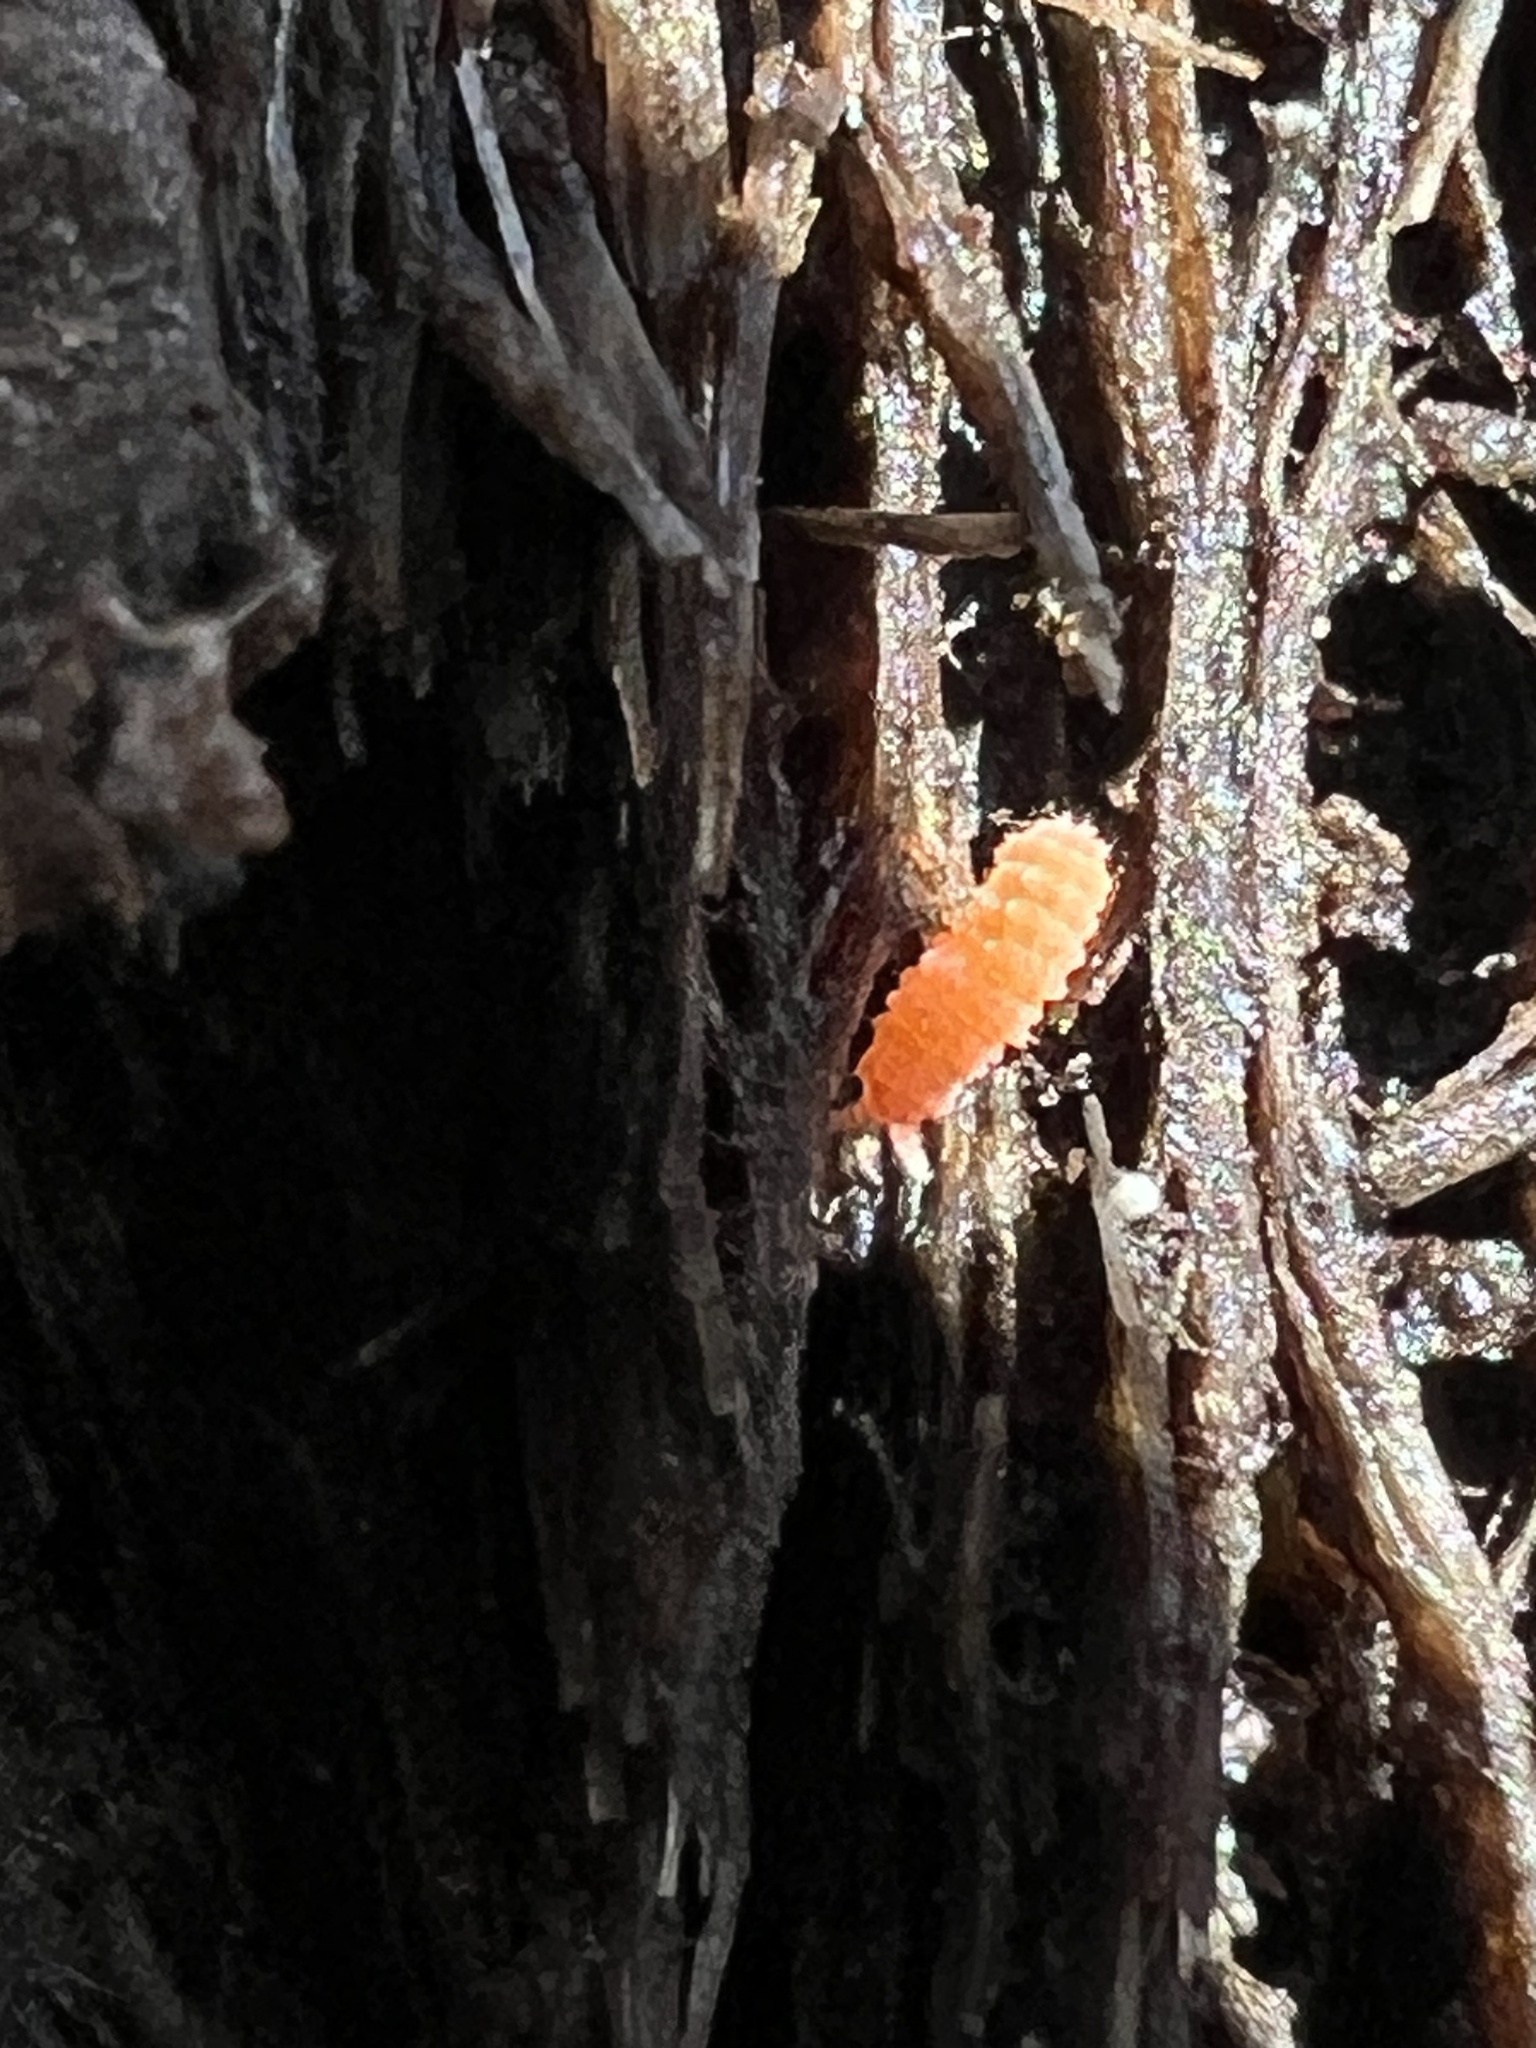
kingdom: Animalia
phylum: Arthropoda
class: Collembola
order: Poduromorpha
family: Neanuridae
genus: Vitronura
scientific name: Vitronura giselae
